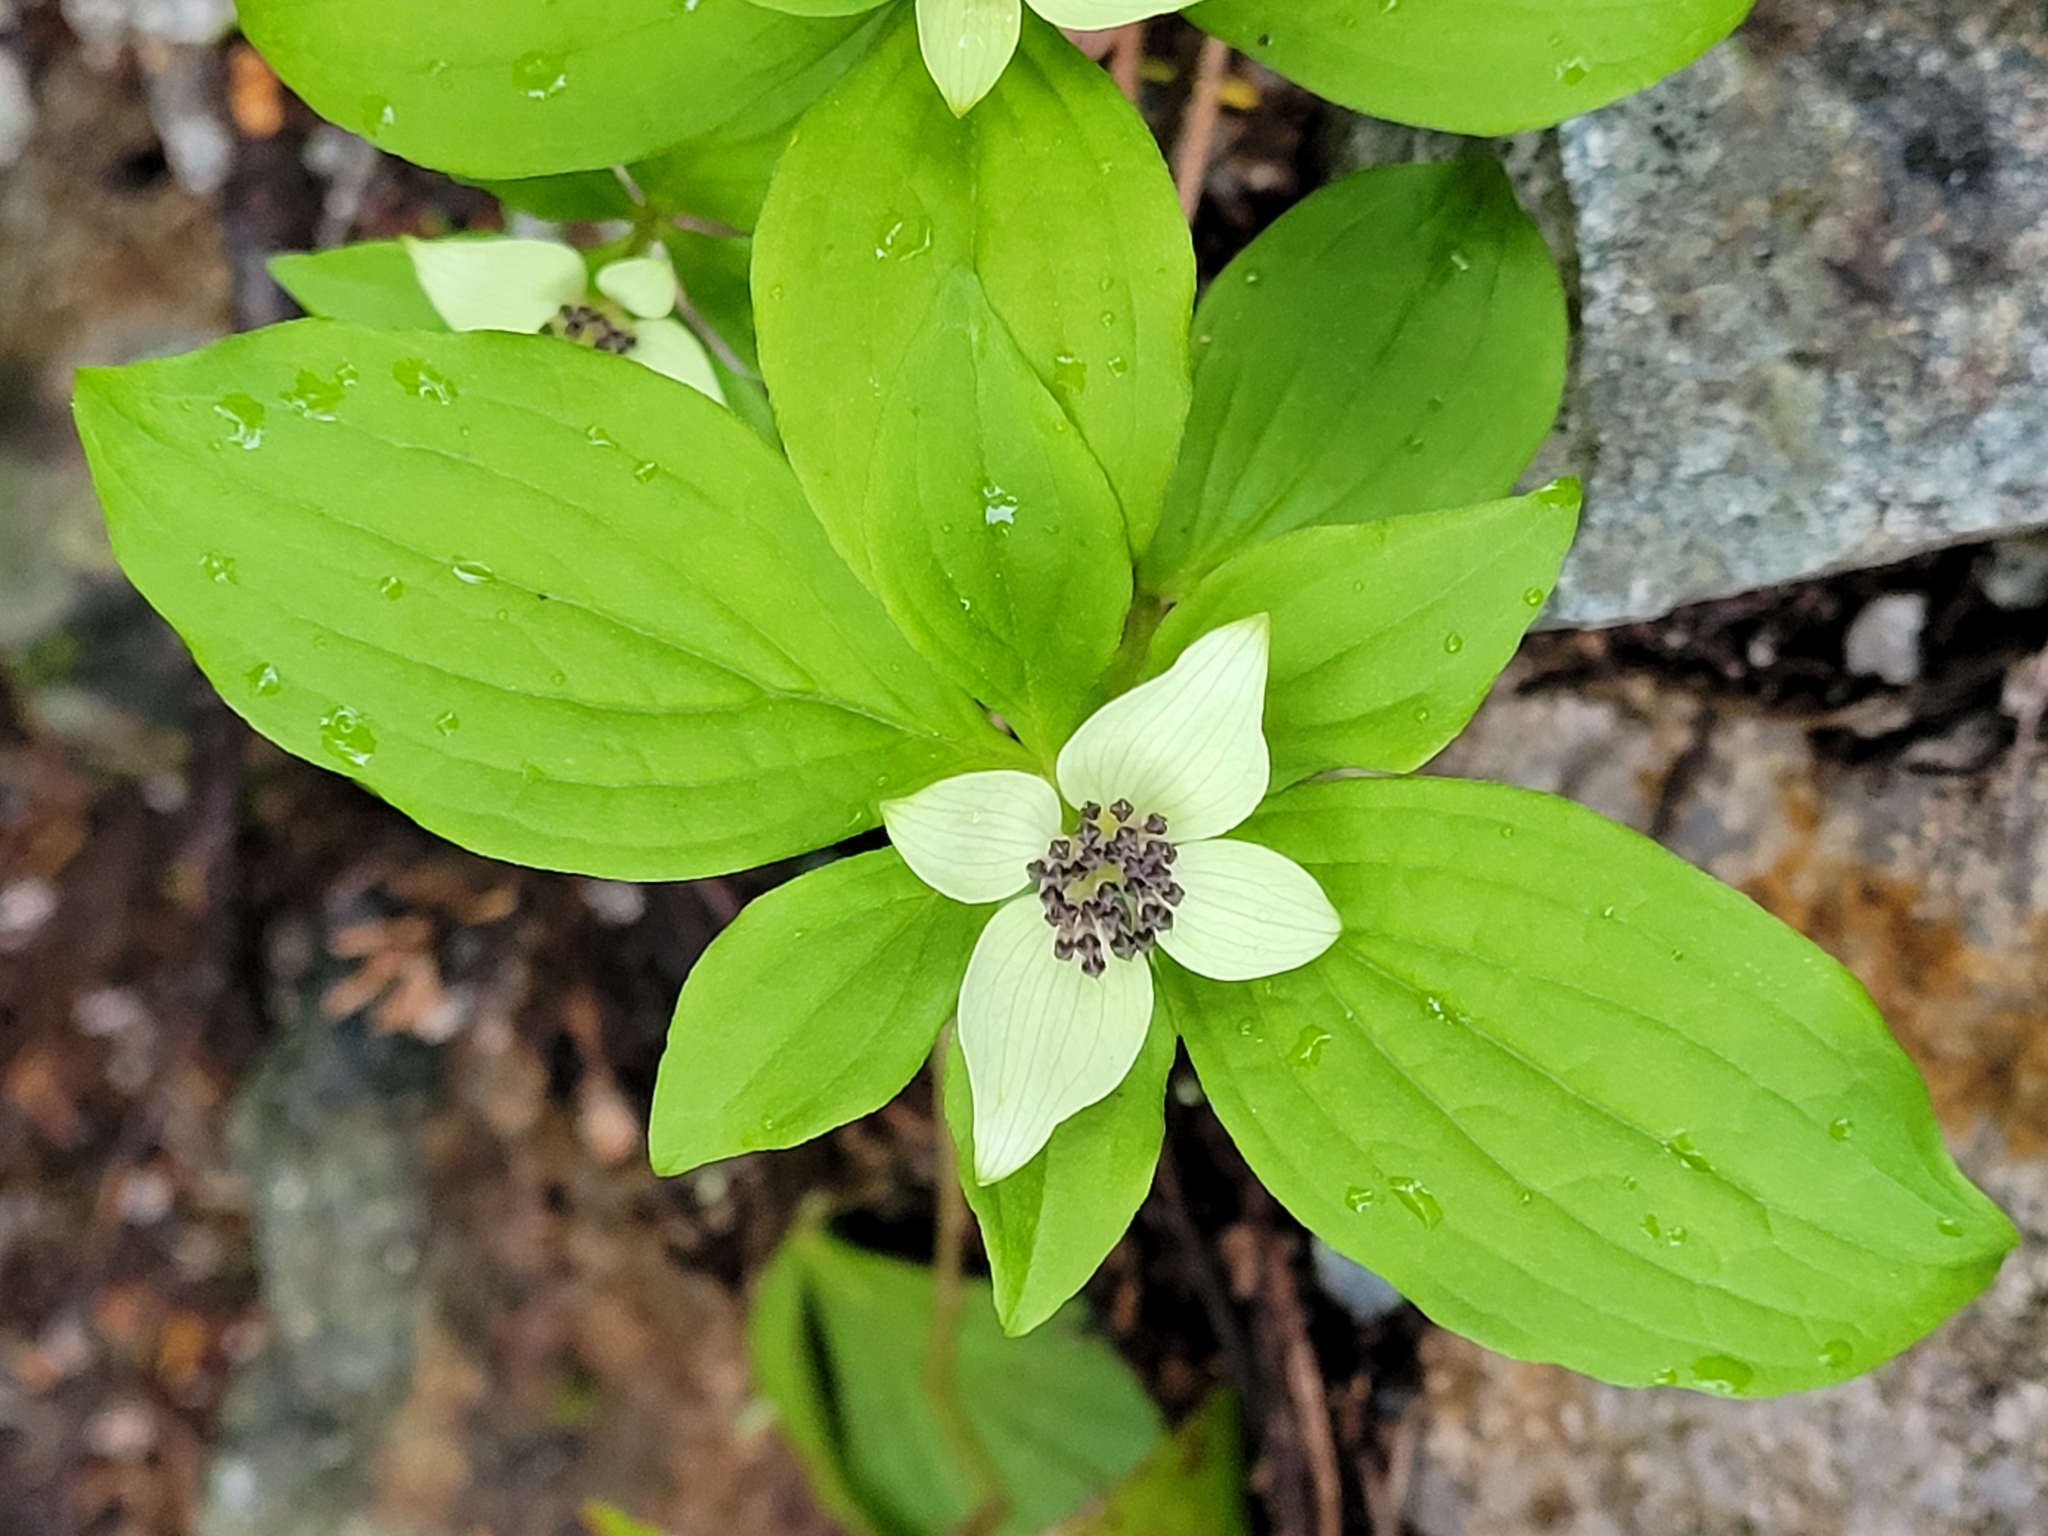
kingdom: Plantae
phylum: Tracheophyta
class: Magnoliopsida
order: Cornales
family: Cornaceae
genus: Cornus
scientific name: Cornus unalaschkensis
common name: Alaska bunchberry
